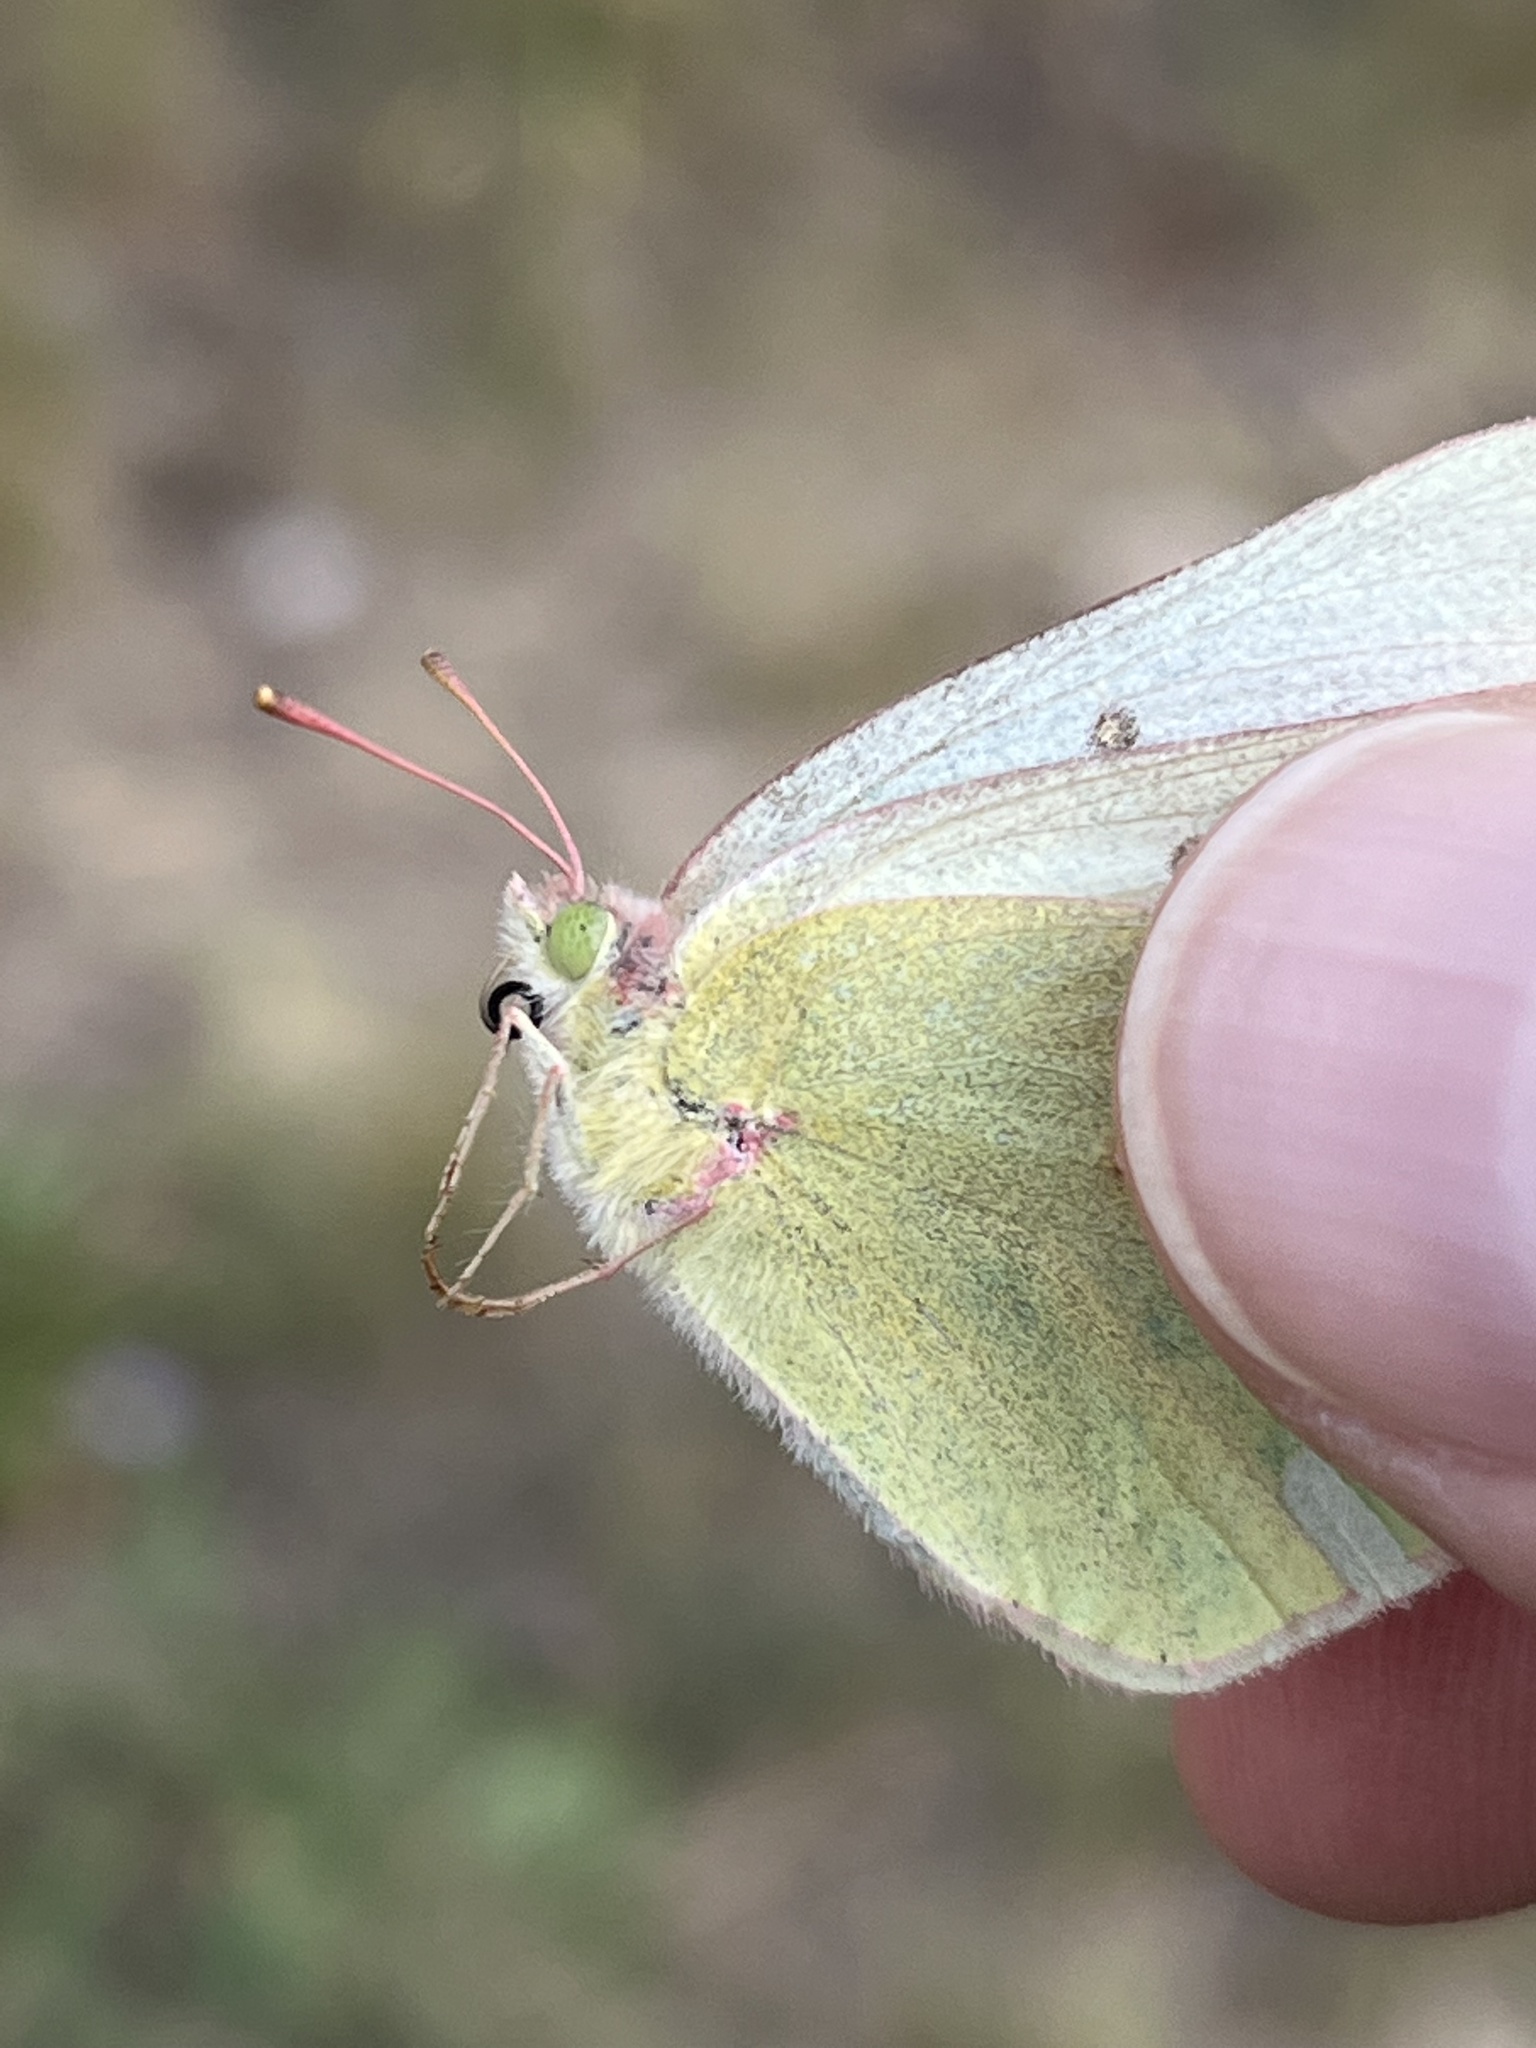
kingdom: Animalia
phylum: Arthropoda
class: Insecta
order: Lepidoptera
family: Pieridae
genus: Colias
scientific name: Colias christina
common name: Christina sulphur
